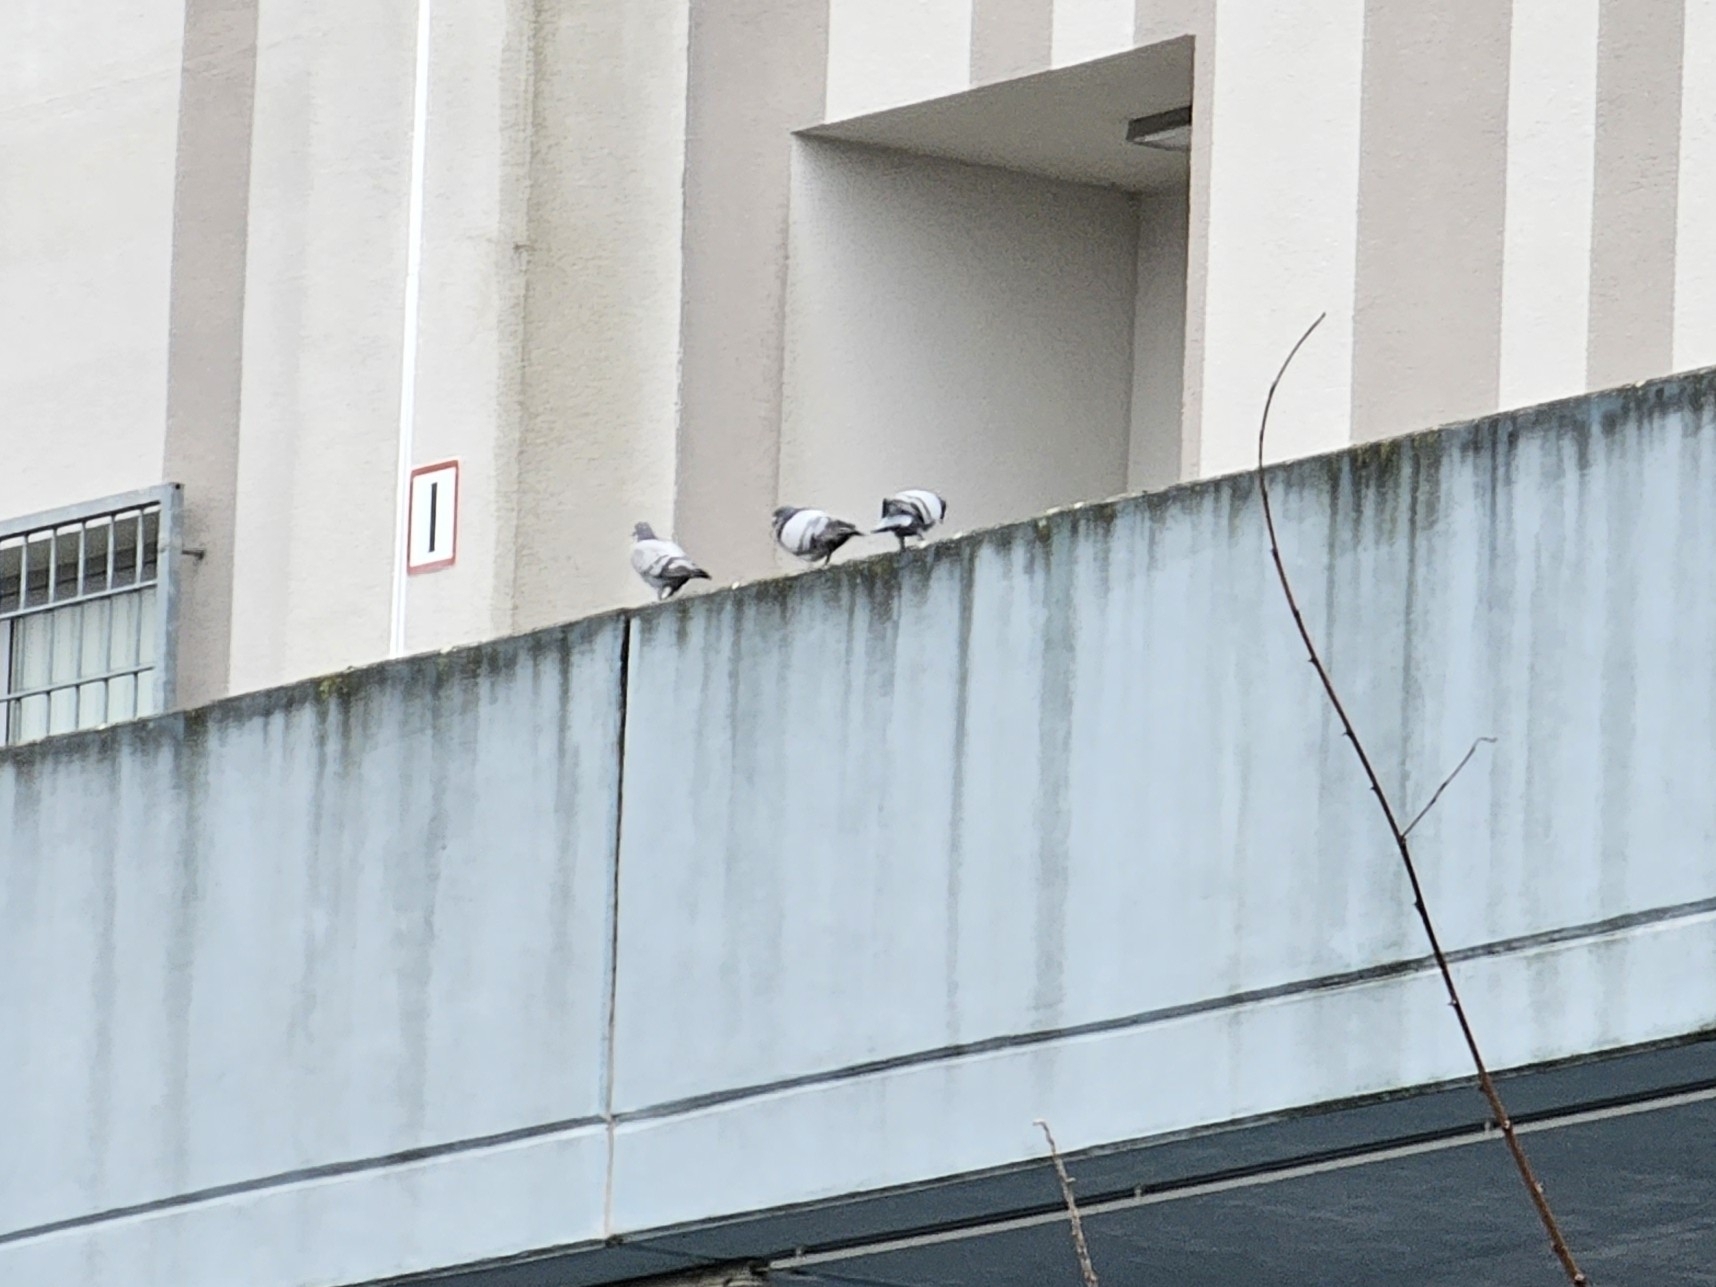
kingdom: Animalia
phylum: Chordata
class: Aves
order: Columbiformes
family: Columbidae
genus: Columba
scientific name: Columba livia
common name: Rock pigeon
